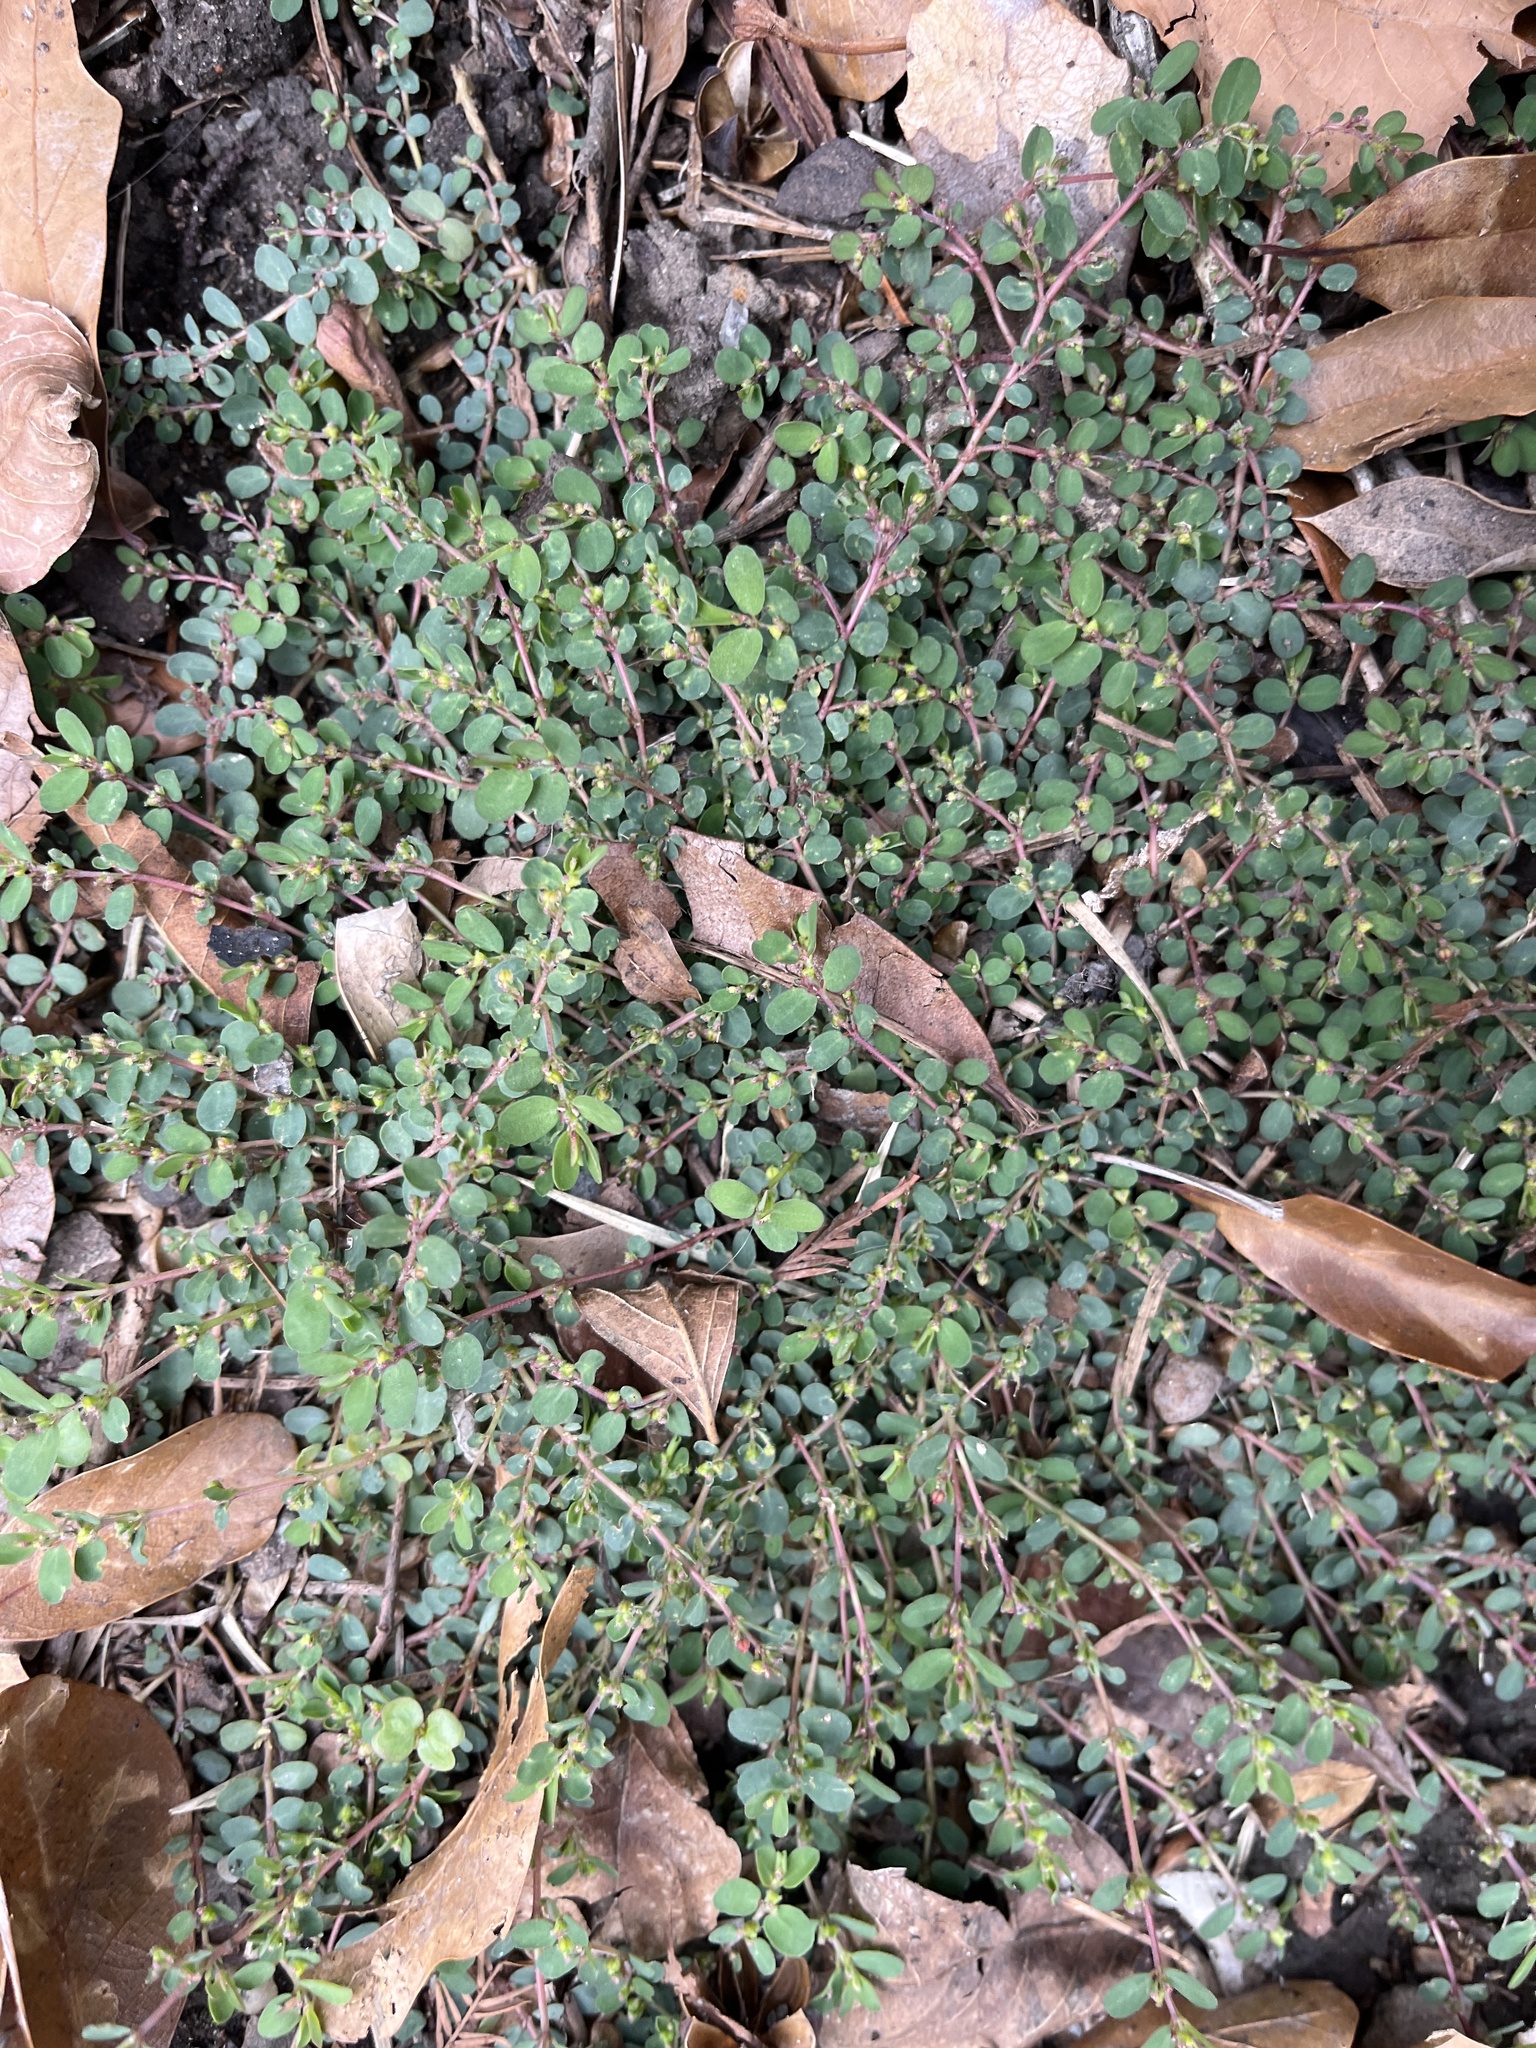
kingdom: Plantae
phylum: Tracheophyta
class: Magnoliopsida
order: Malpighiales
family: Euphorbiaceae
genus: Euphorbia
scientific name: Euphorbia prostrata
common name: Prostrate sandmat
